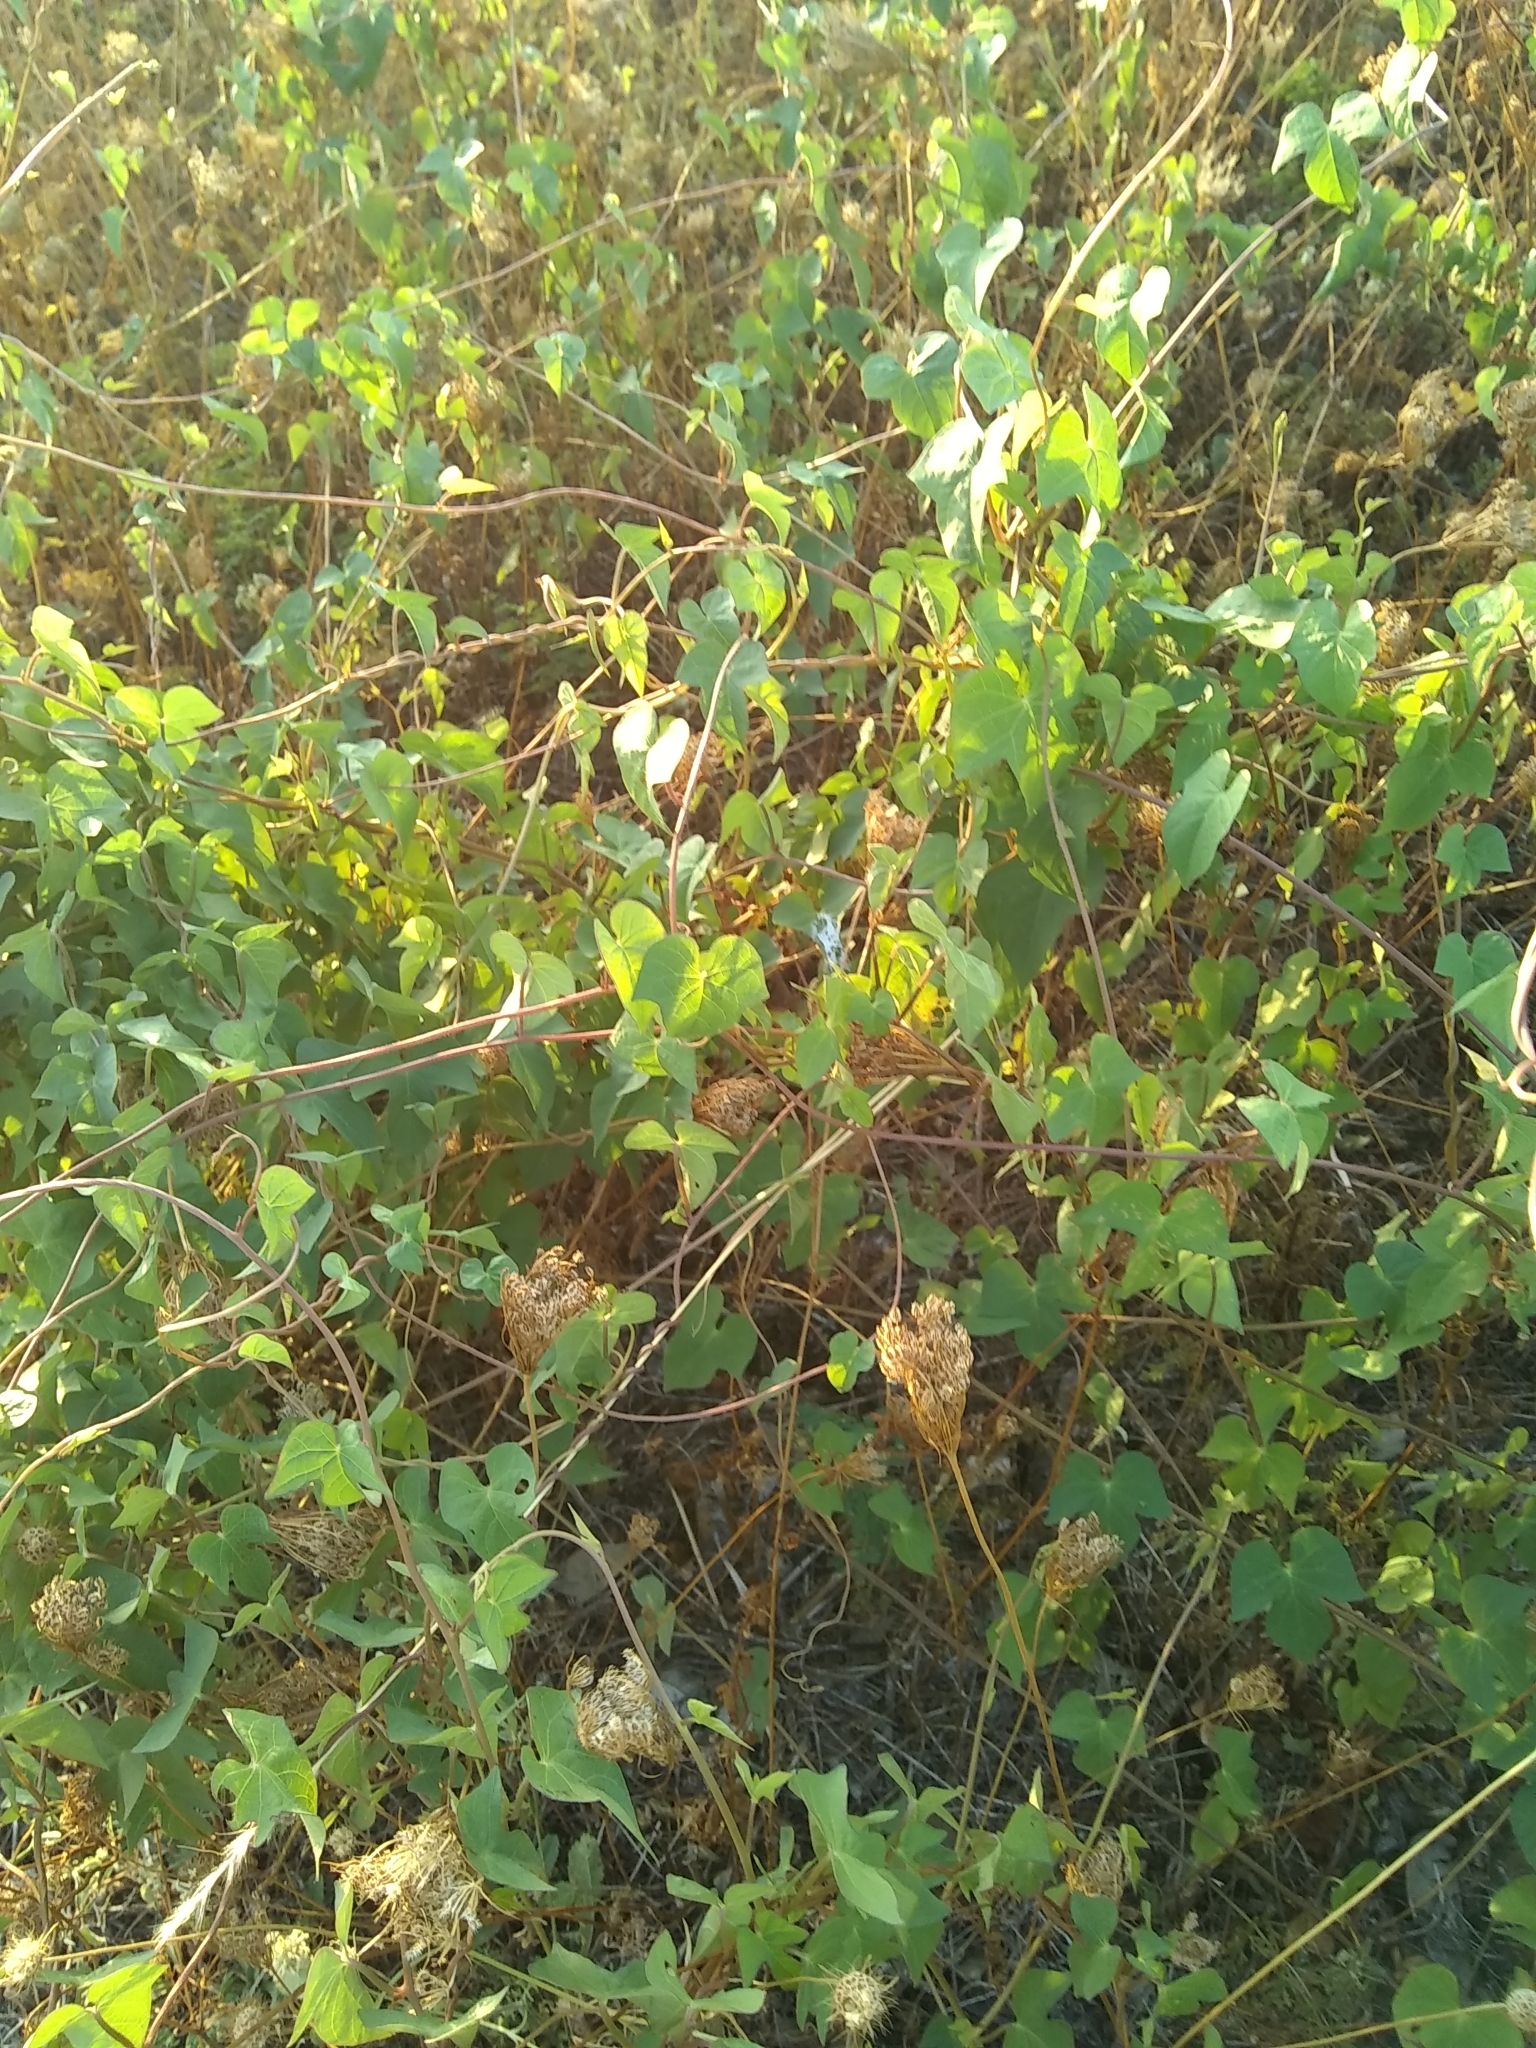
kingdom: Plantae
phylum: Tracheophyta
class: Magnoliopsida
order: Solanales
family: Convolvulaceae
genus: Ipomoea
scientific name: Ipomoea cordatotriloba
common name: Cotton morning glory
